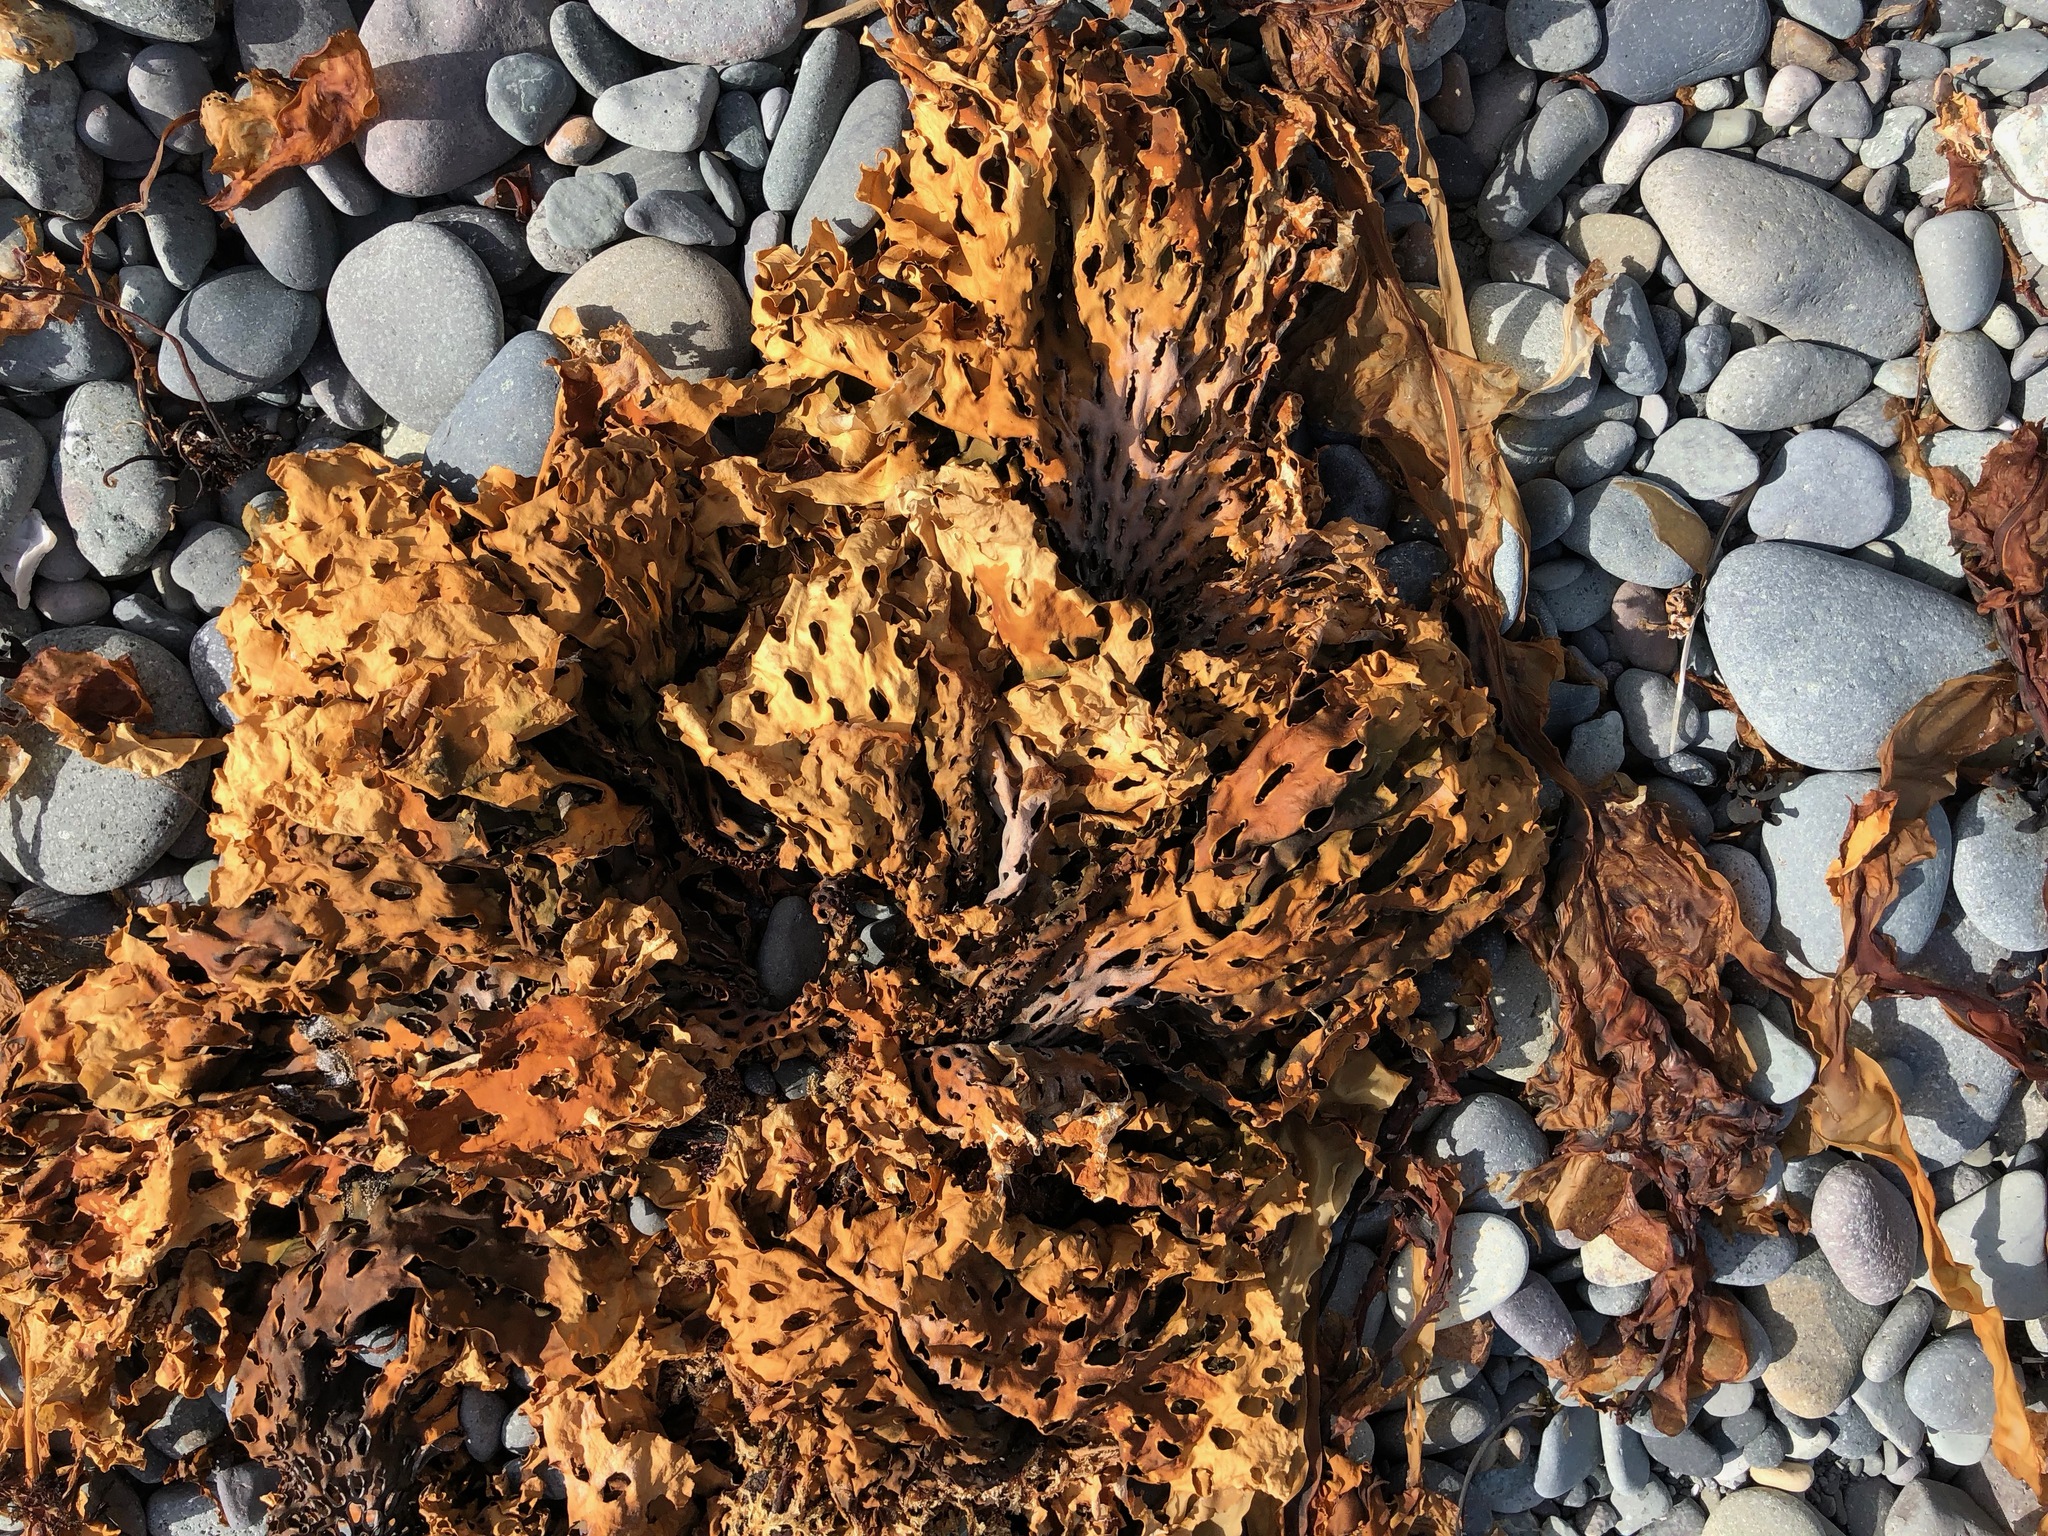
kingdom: Chromista
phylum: Ochrophyta
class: Phaeophyceae
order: Laminariales
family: Costariaceae
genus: Thalassiophyllum
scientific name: Thalassiophyllum
